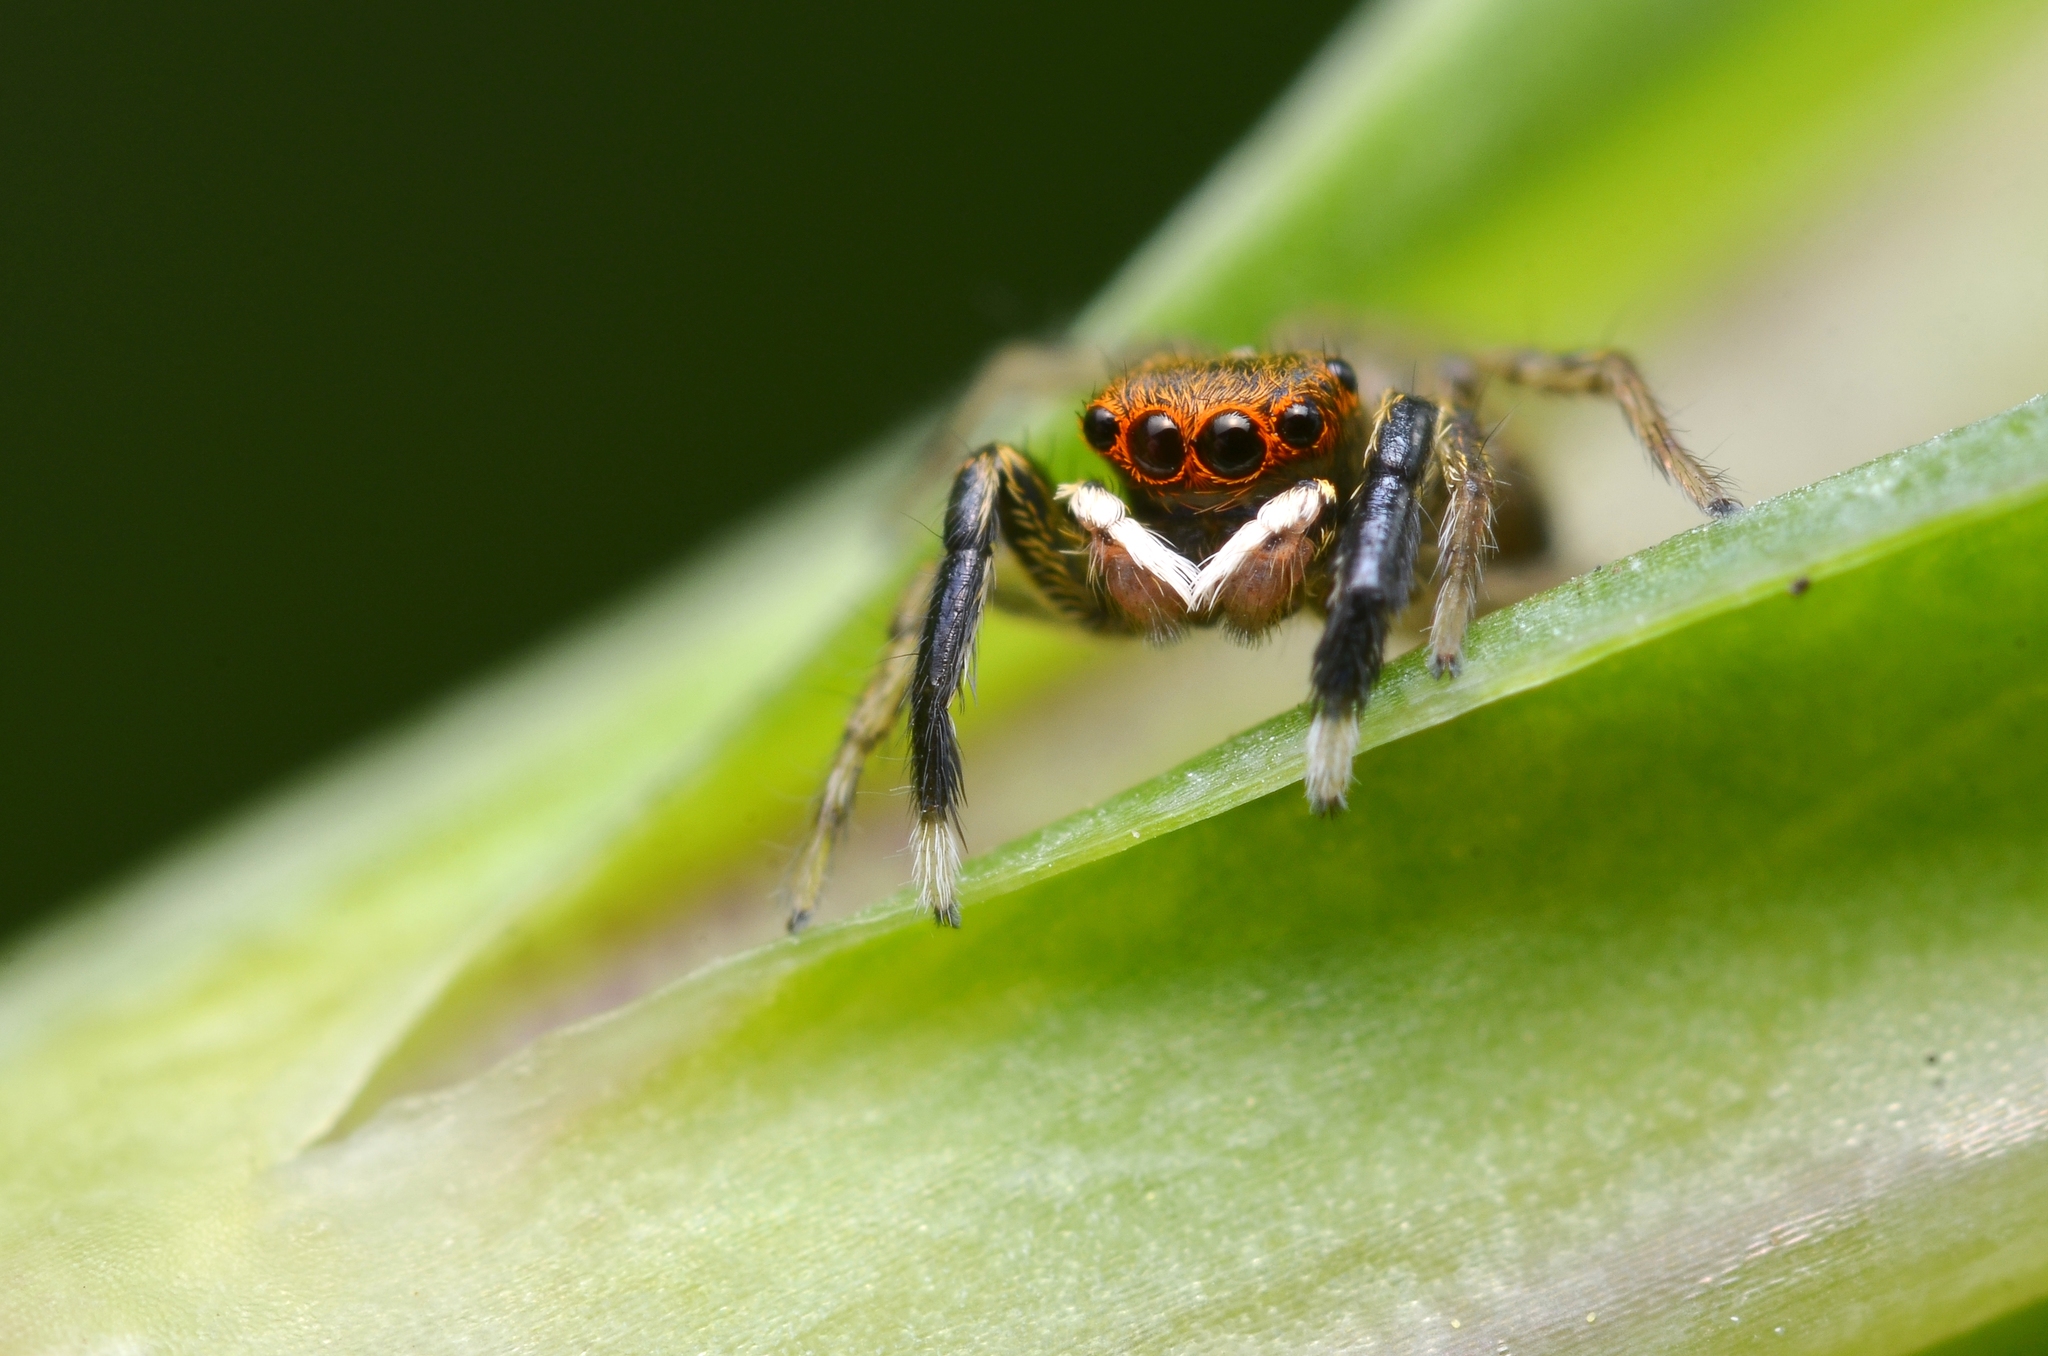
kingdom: Animalia
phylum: Arthropoda
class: Arachnida
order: Araneae
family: Salticidae
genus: Euophrys
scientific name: Euophrys frontalis
